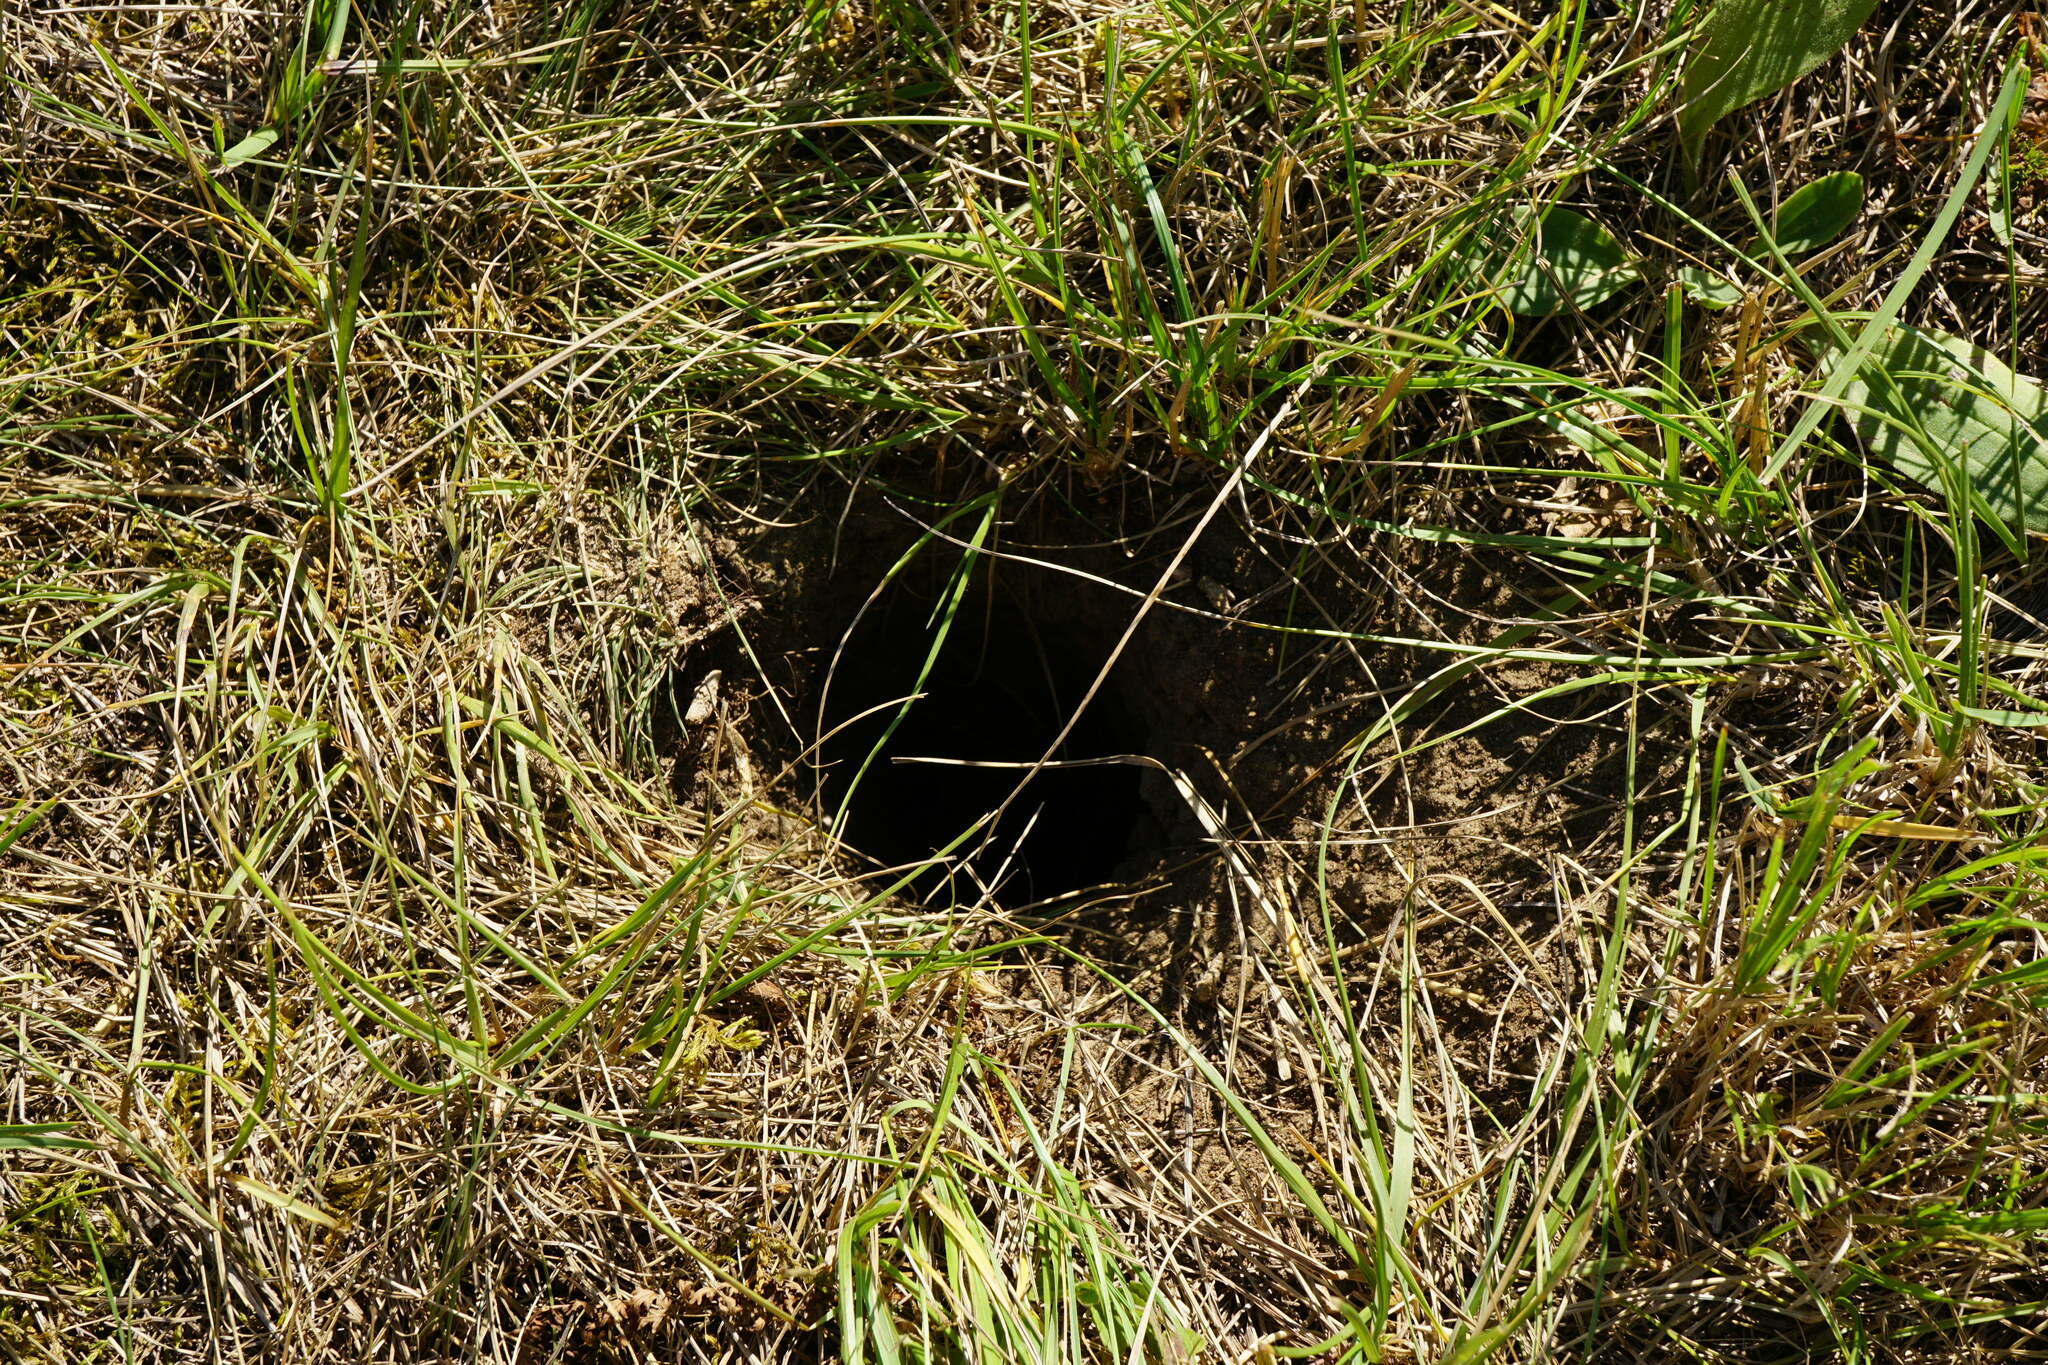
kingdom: Animalia
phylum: Chordata
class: Mammalia
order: Rodentia
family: Sciuridae
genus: Spermophilus
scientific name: Spermophilus citellus
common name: European ground squirrel
